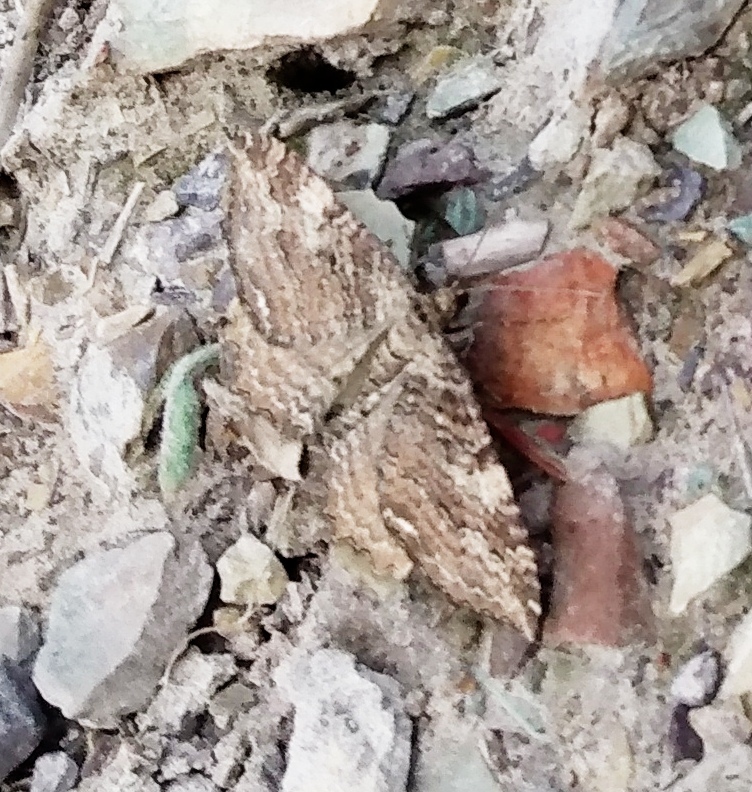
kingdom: Animalia
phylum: Arthropoda
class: Insecta
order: Lepidoptera
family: Geometridae
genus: Rheumaptera
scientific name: Rheumaptera
